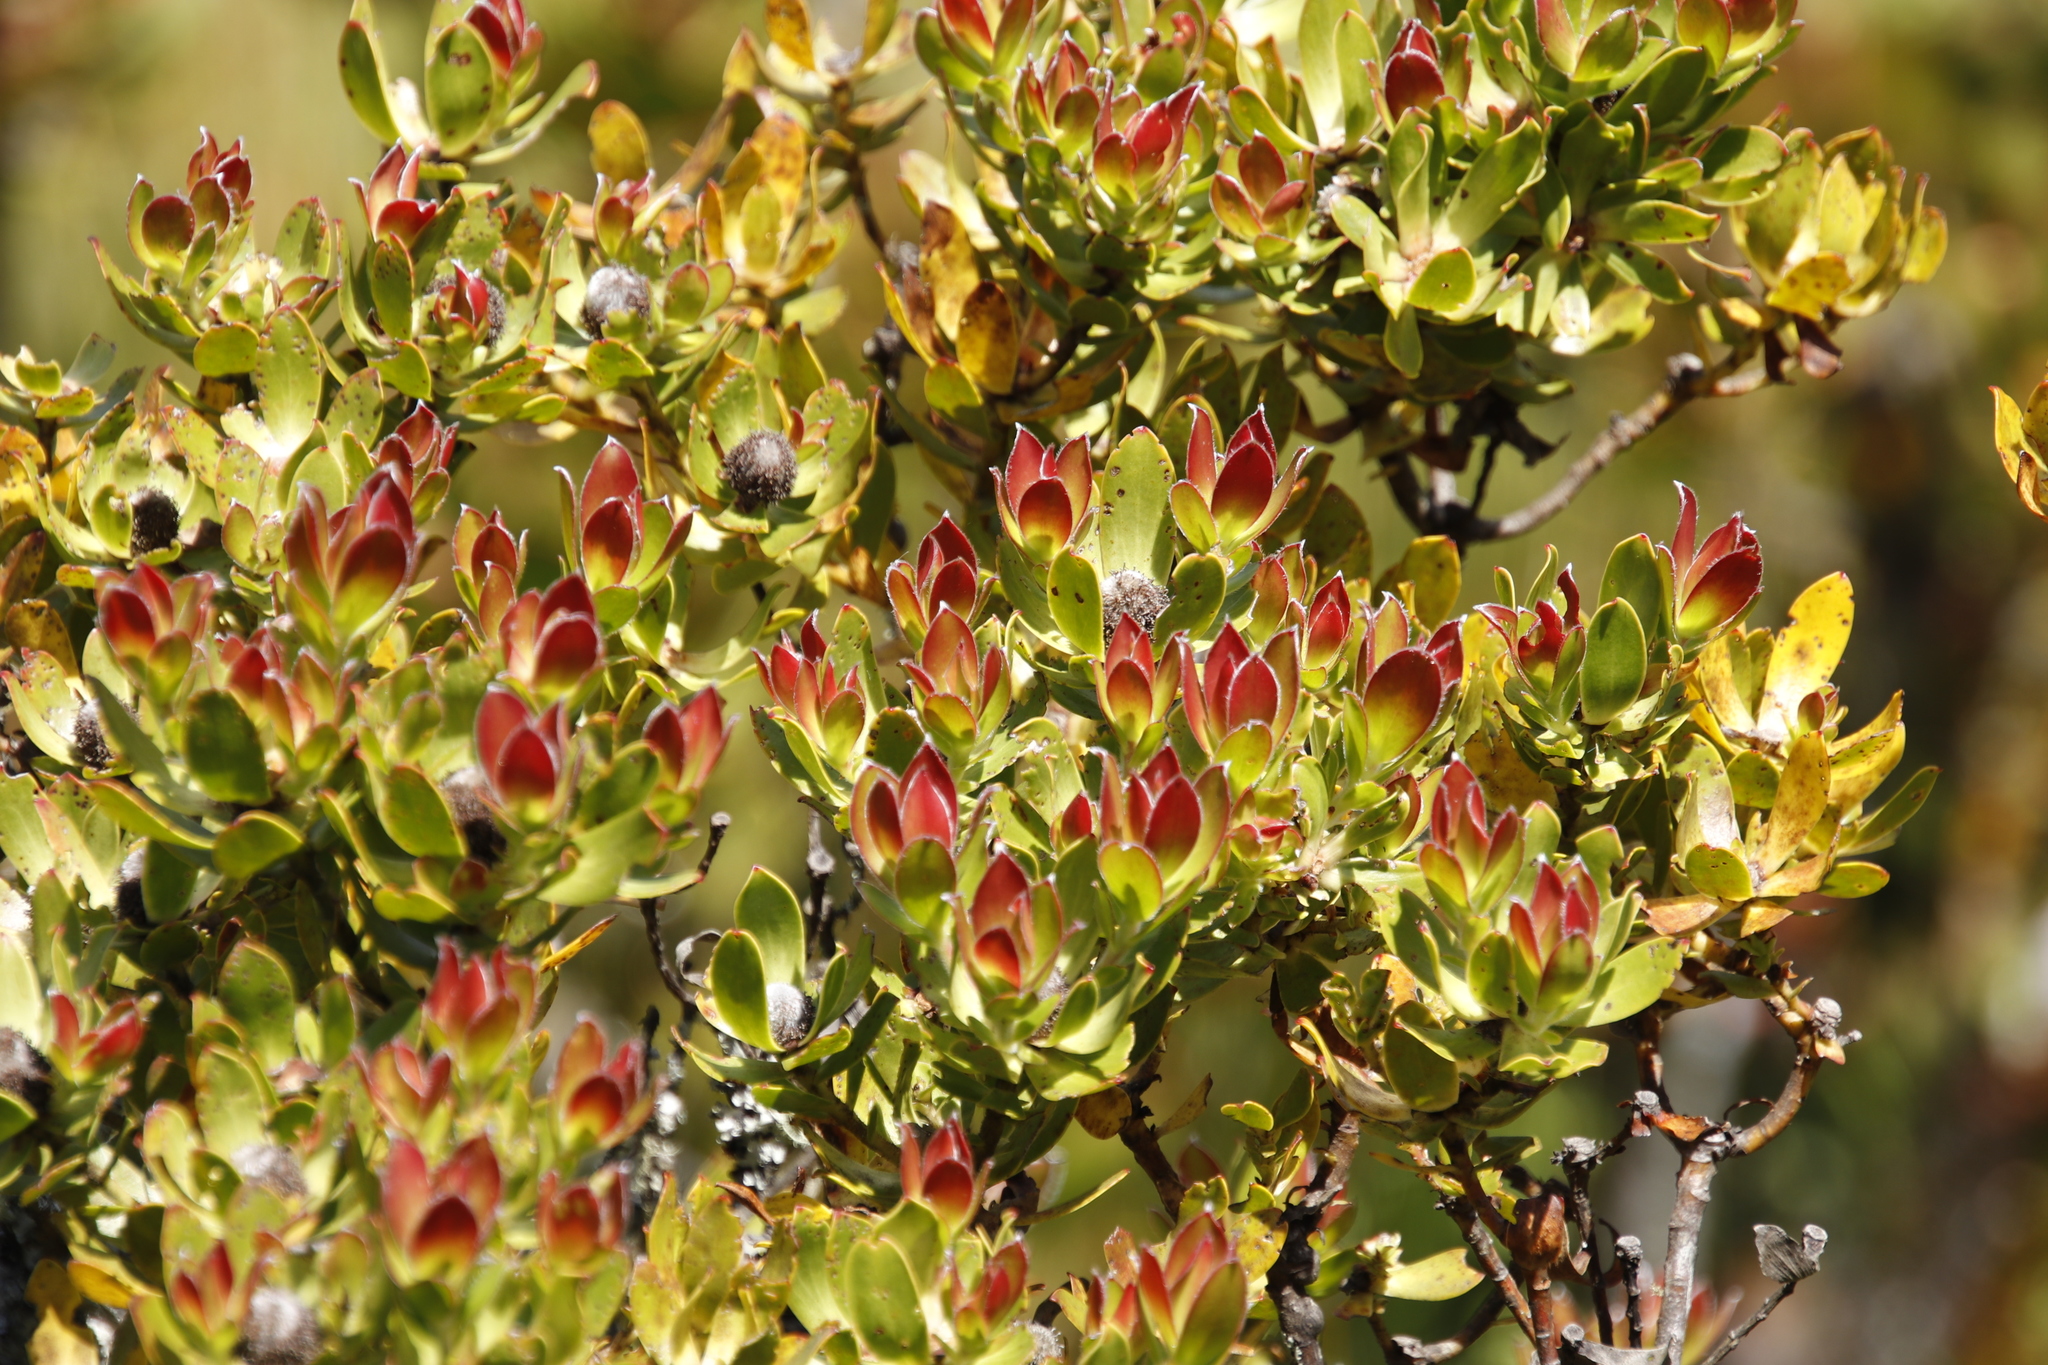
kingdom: Plantae
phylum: Tracheophyta
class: Magnoliopsida
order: Proteales
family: Proteaceae
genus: Leucadendron
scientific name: Leucadendron strobilinum
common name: Mountain rose
